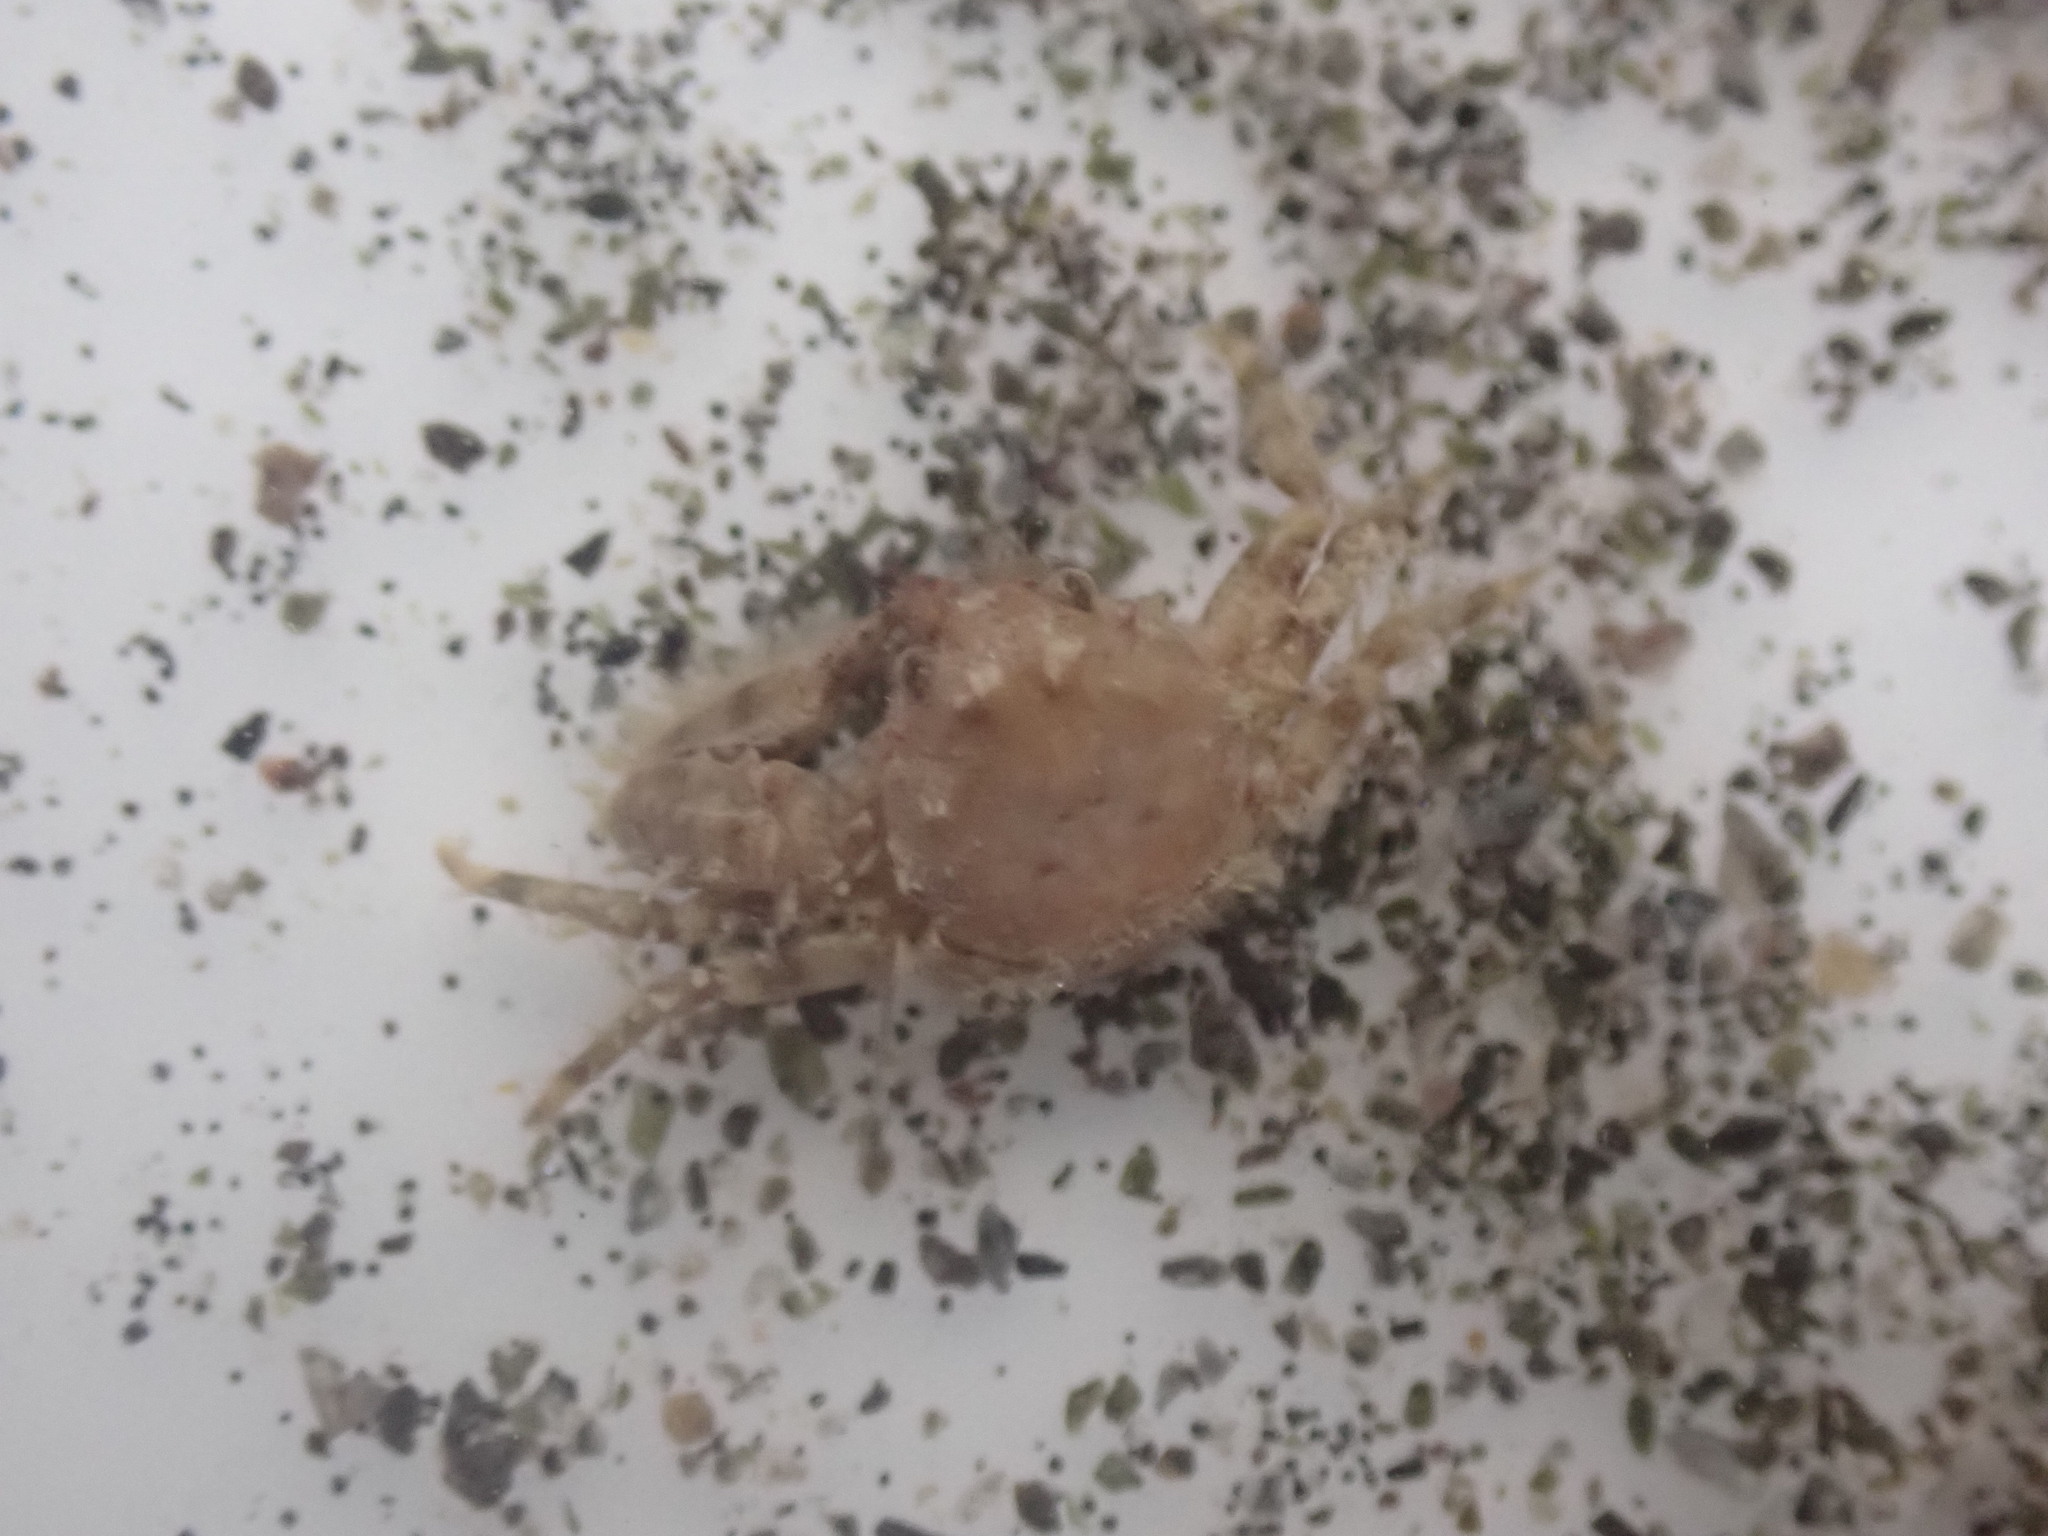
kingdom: Animalia
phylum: Arthropoda
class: Malacostraca
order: Decapoda
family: Porcellanidae
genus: Petrolisthes
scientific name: Petrolisthes novaezelandiae
